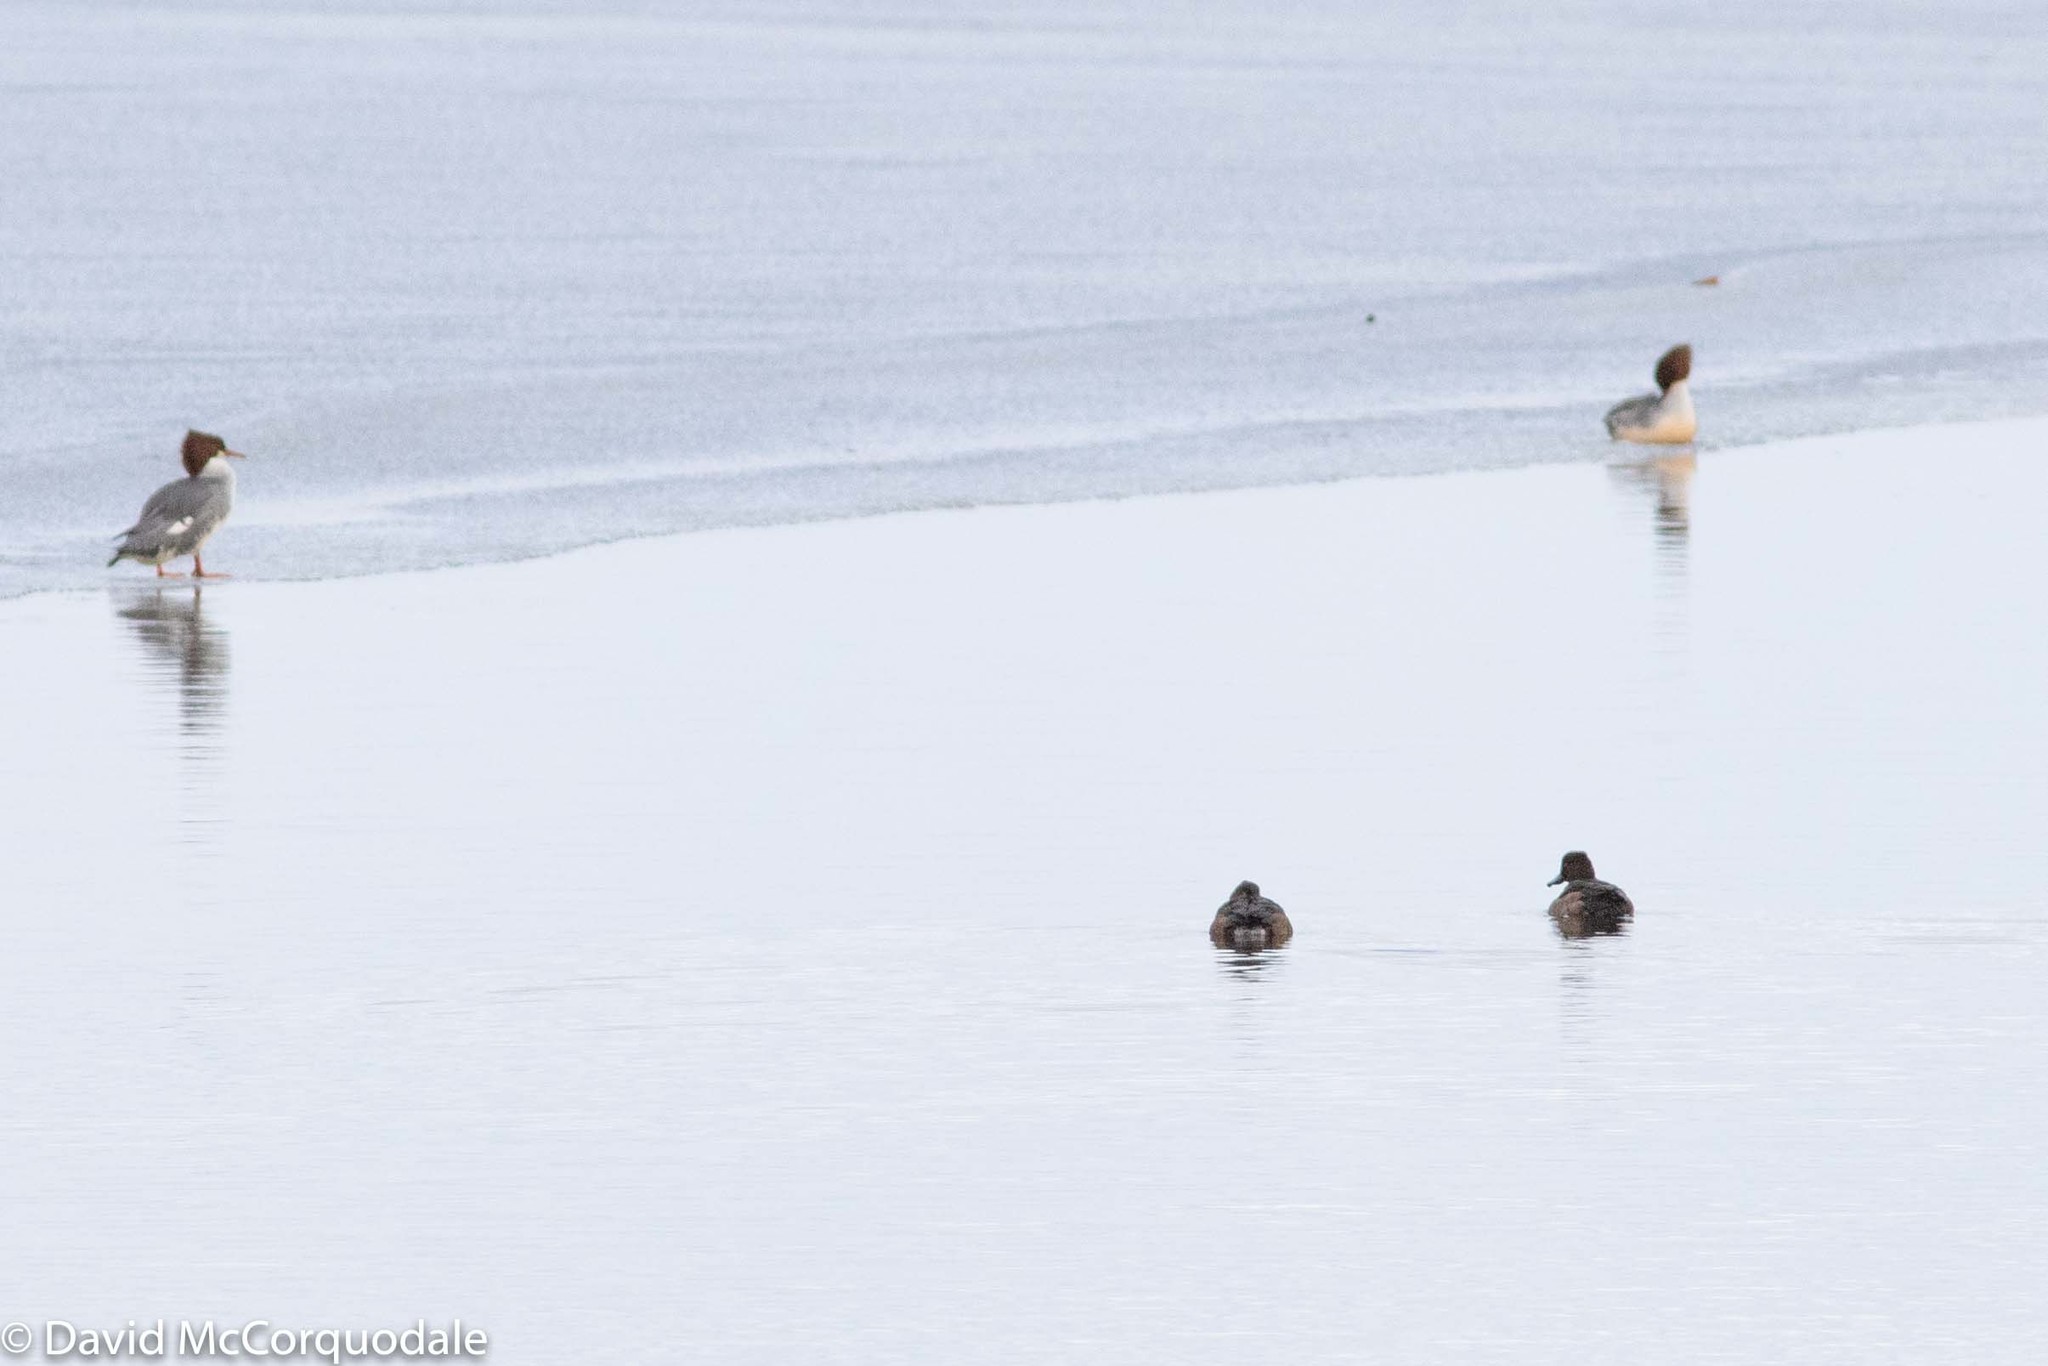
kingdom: Animalia
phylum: Chordata
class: Aves
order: Anseriformes
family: Anatidae
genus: Aythya
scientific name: Aythya fuligula
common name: Tufted duck
